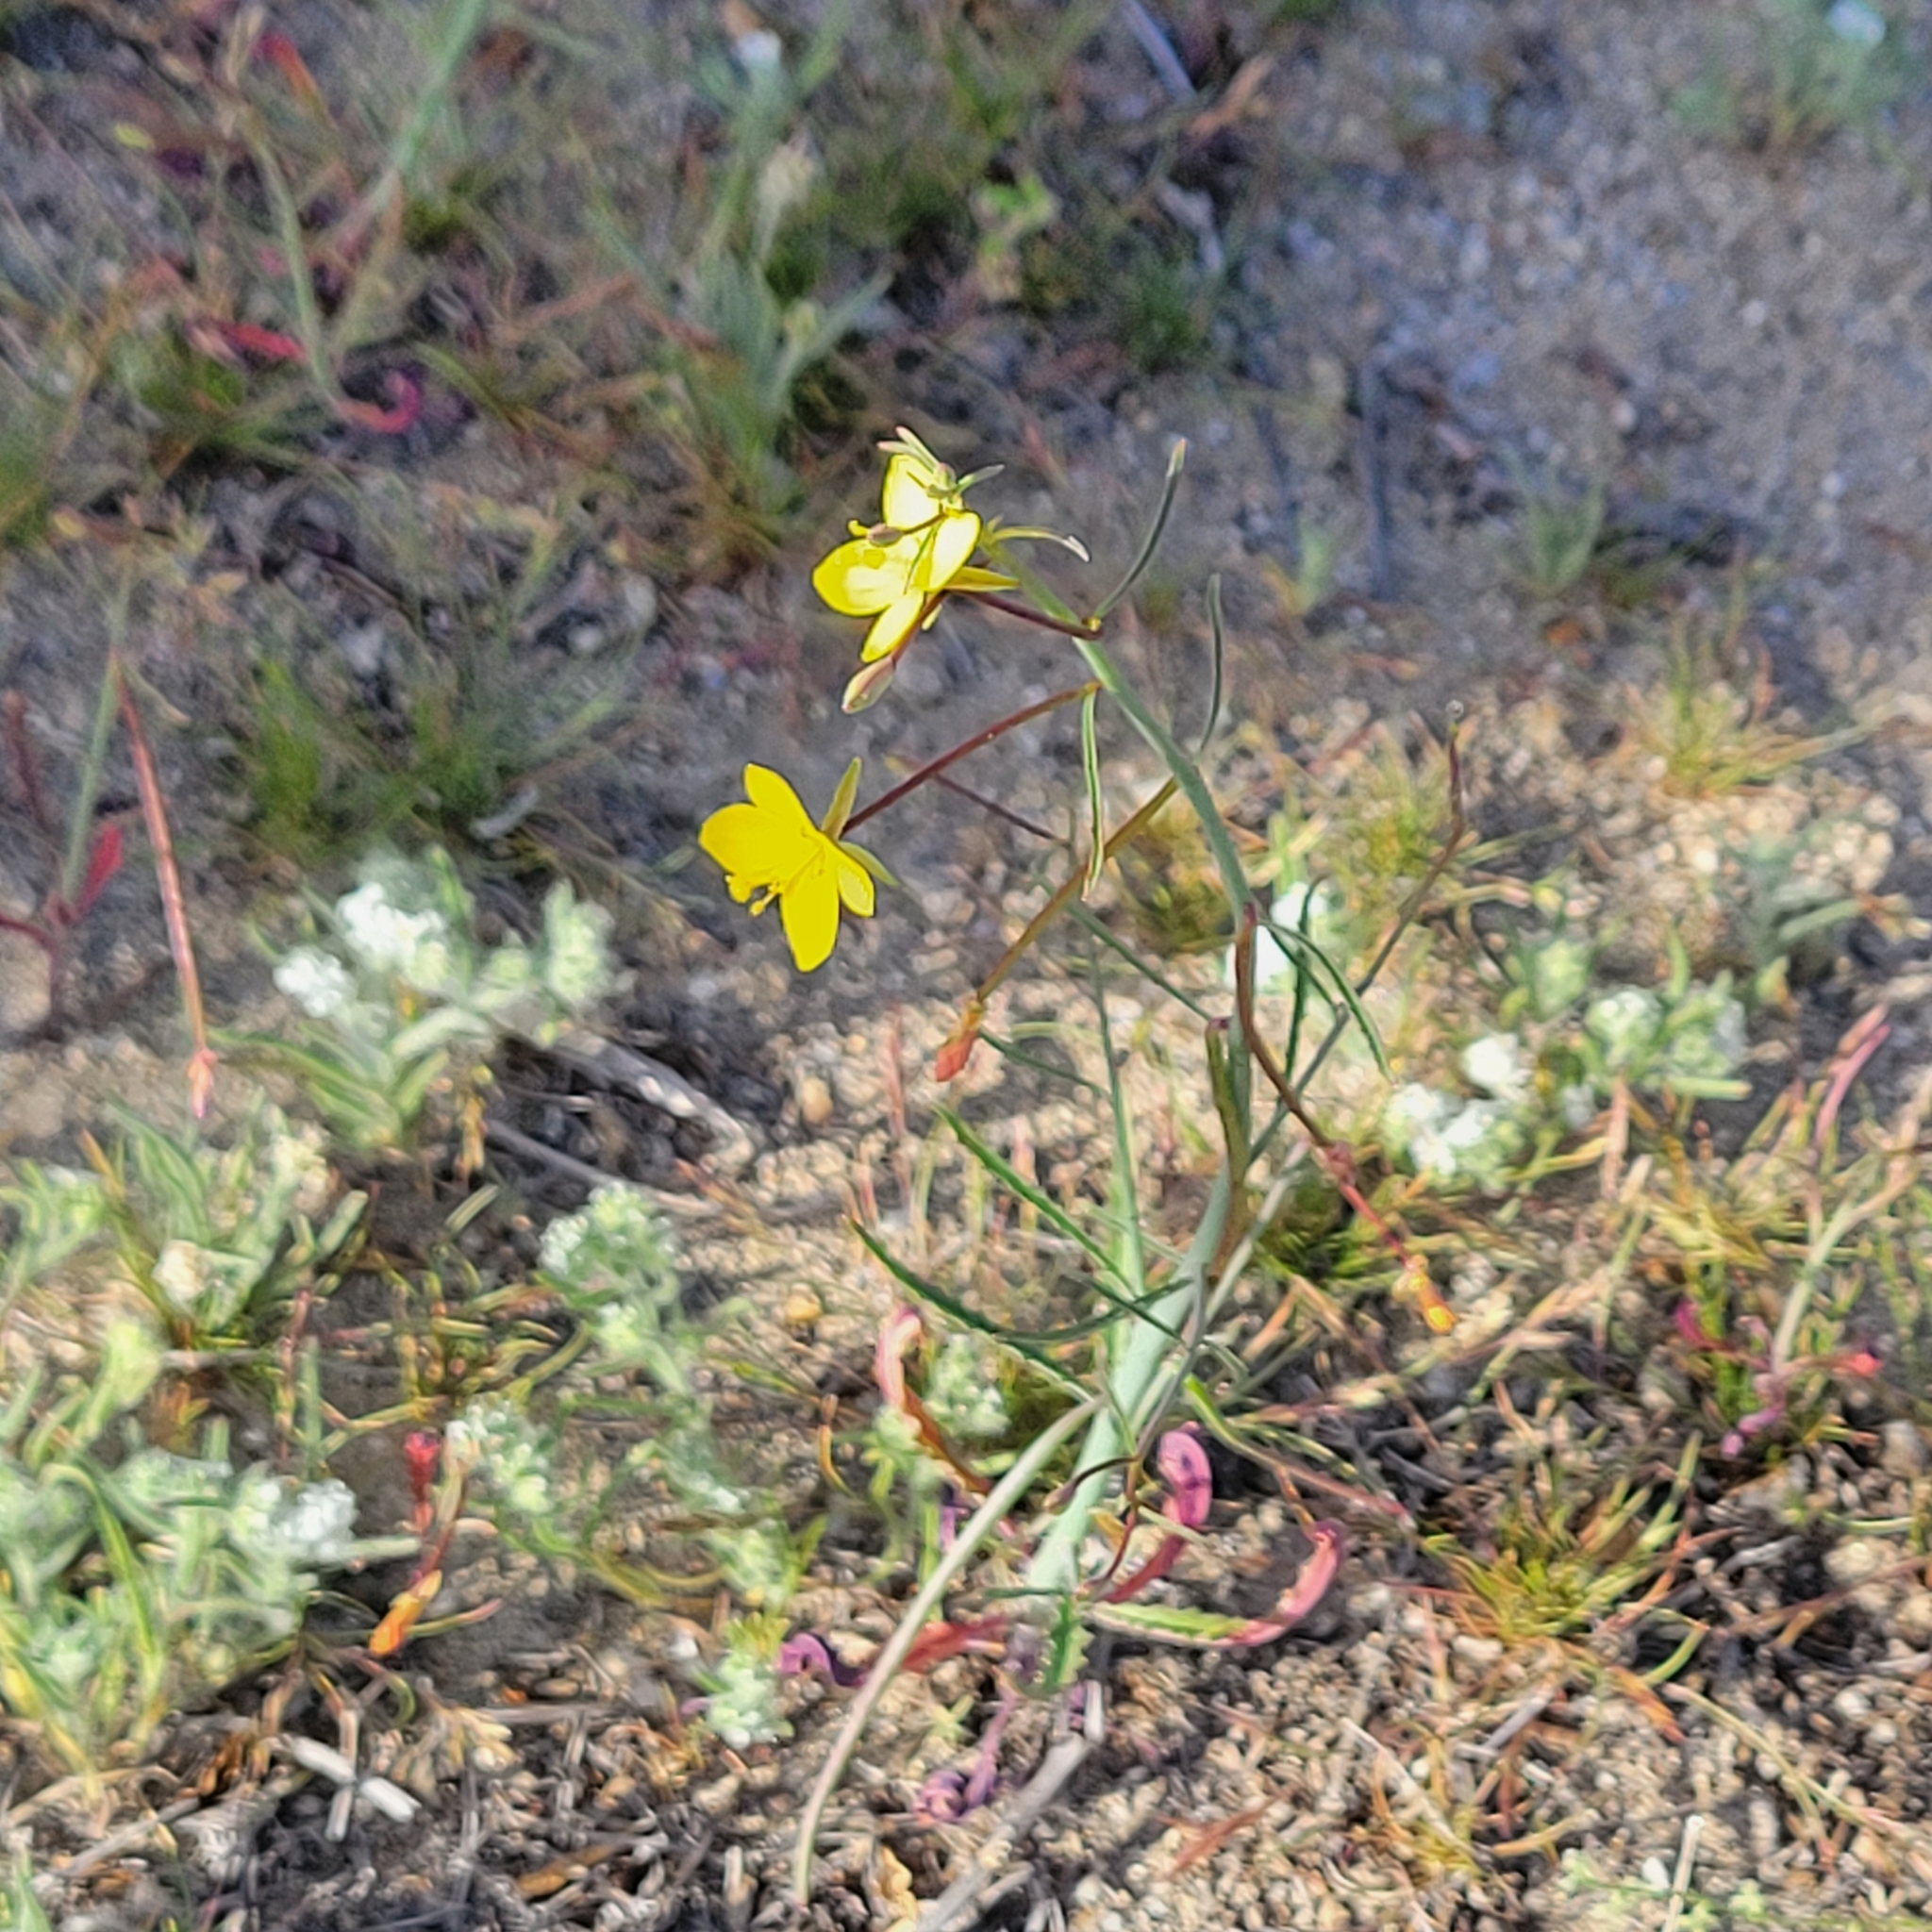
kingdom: Plantae
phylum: Tracheophyta
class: Magnoliopsida
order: Myrtales
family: Onagraceae
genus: Eulobus
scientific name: Eulobus californicus
